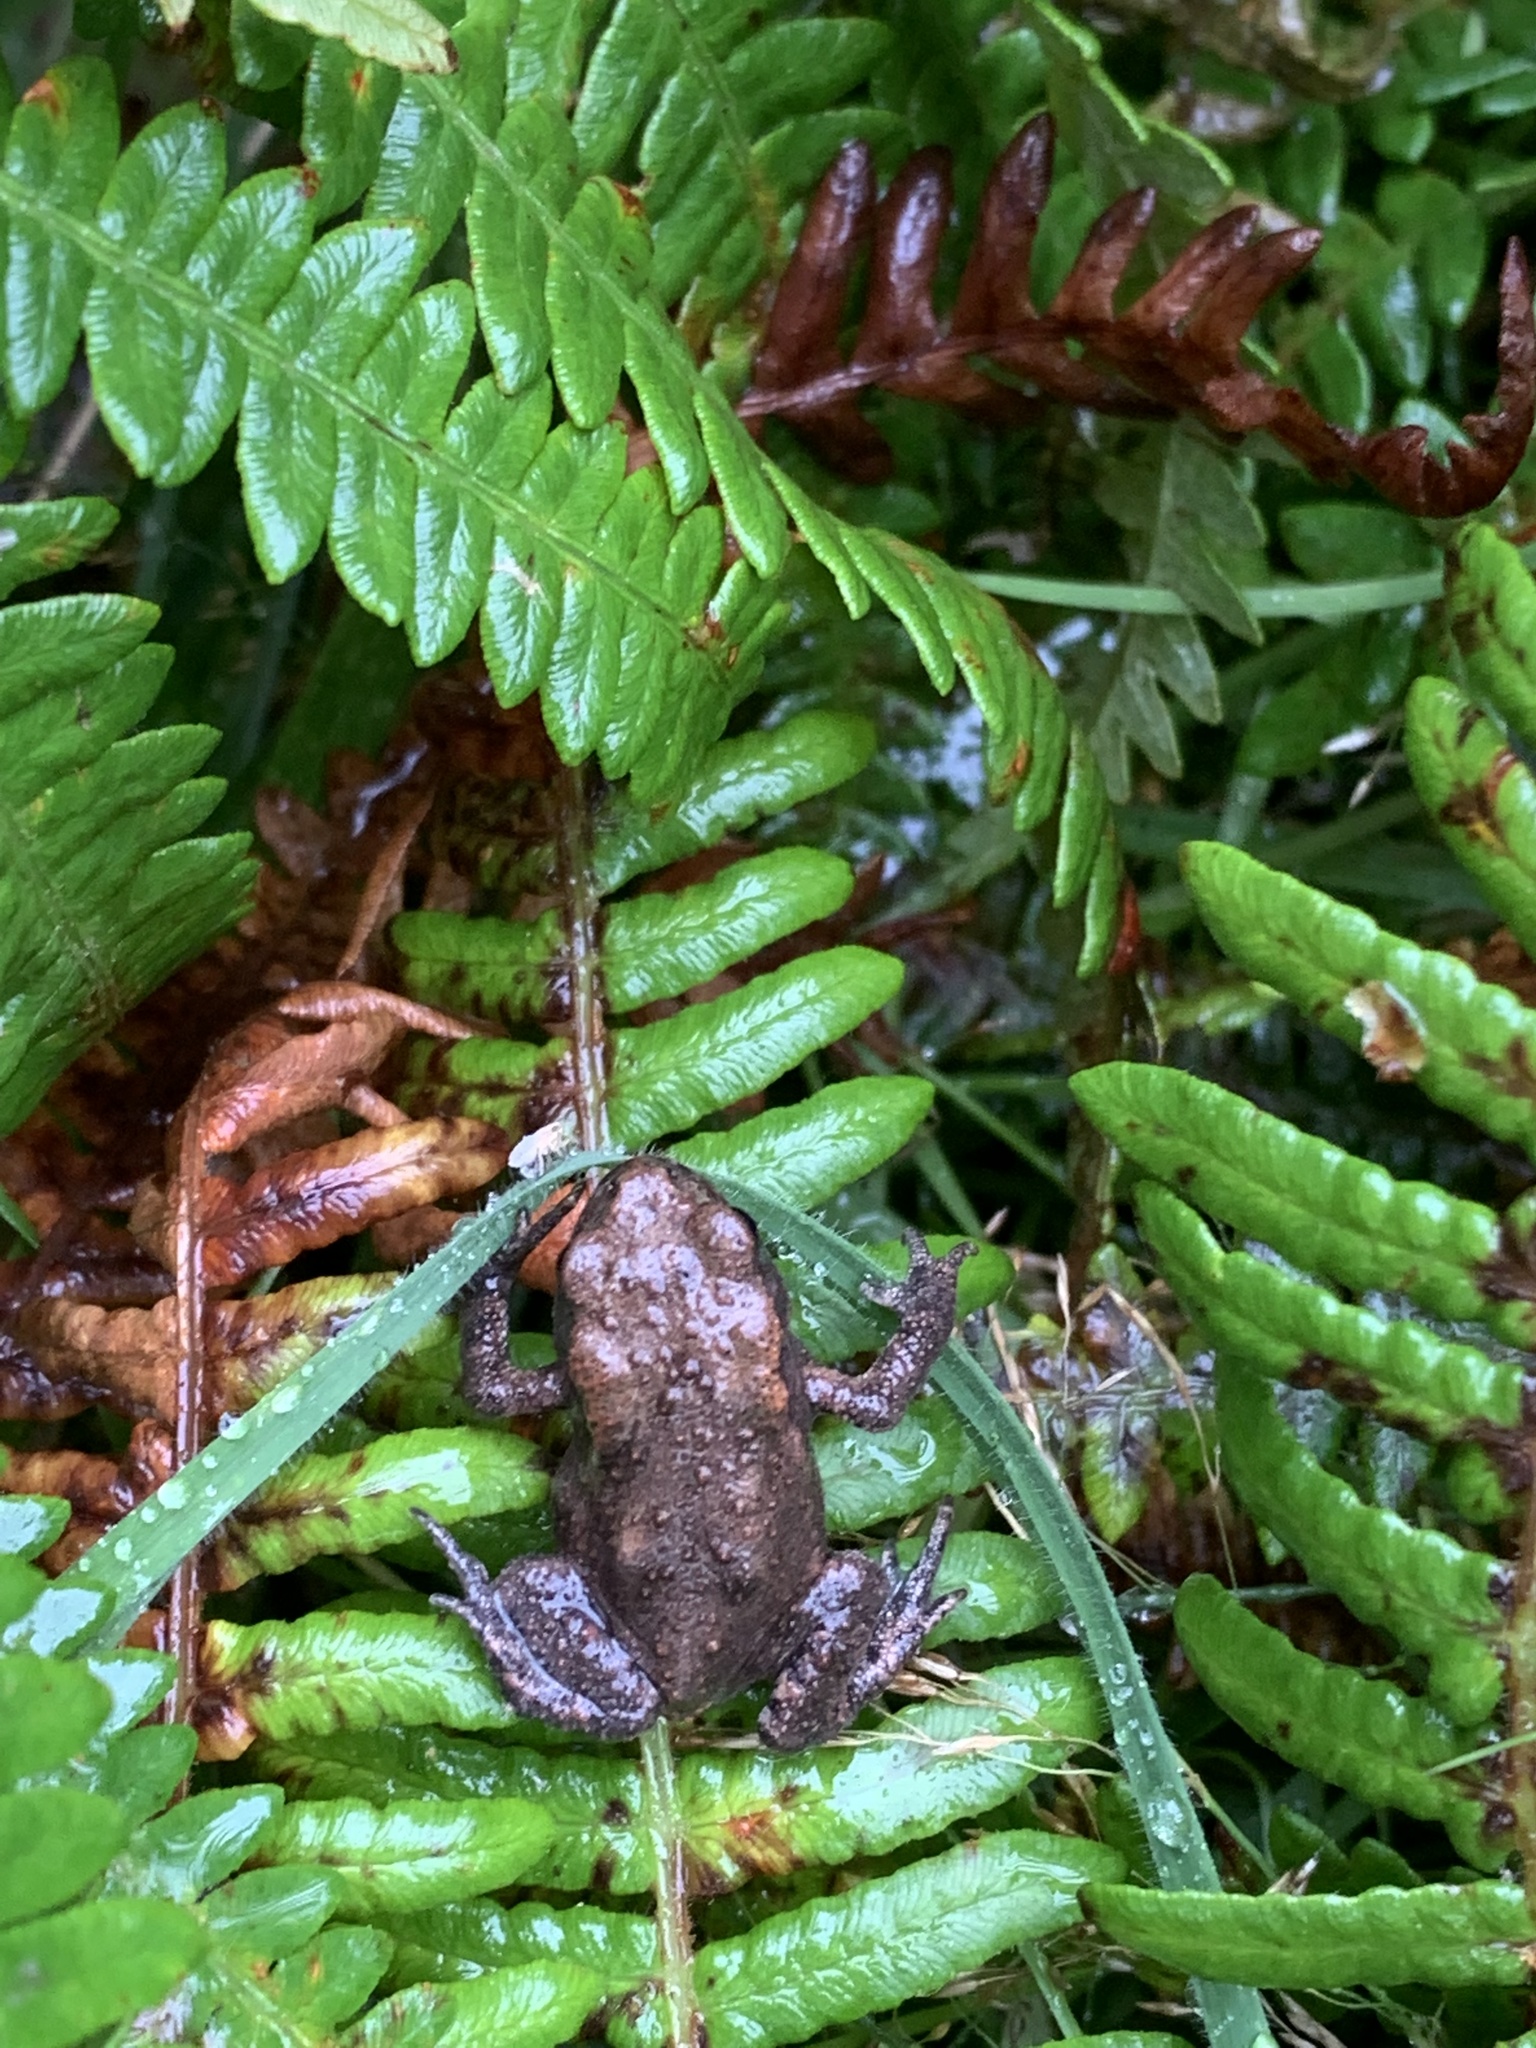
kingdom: Animalia
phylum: Chordata
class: Amphibia
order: Anura
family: Bufonidae
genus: Bufo
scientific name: Bufo bufo
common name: Common toad
